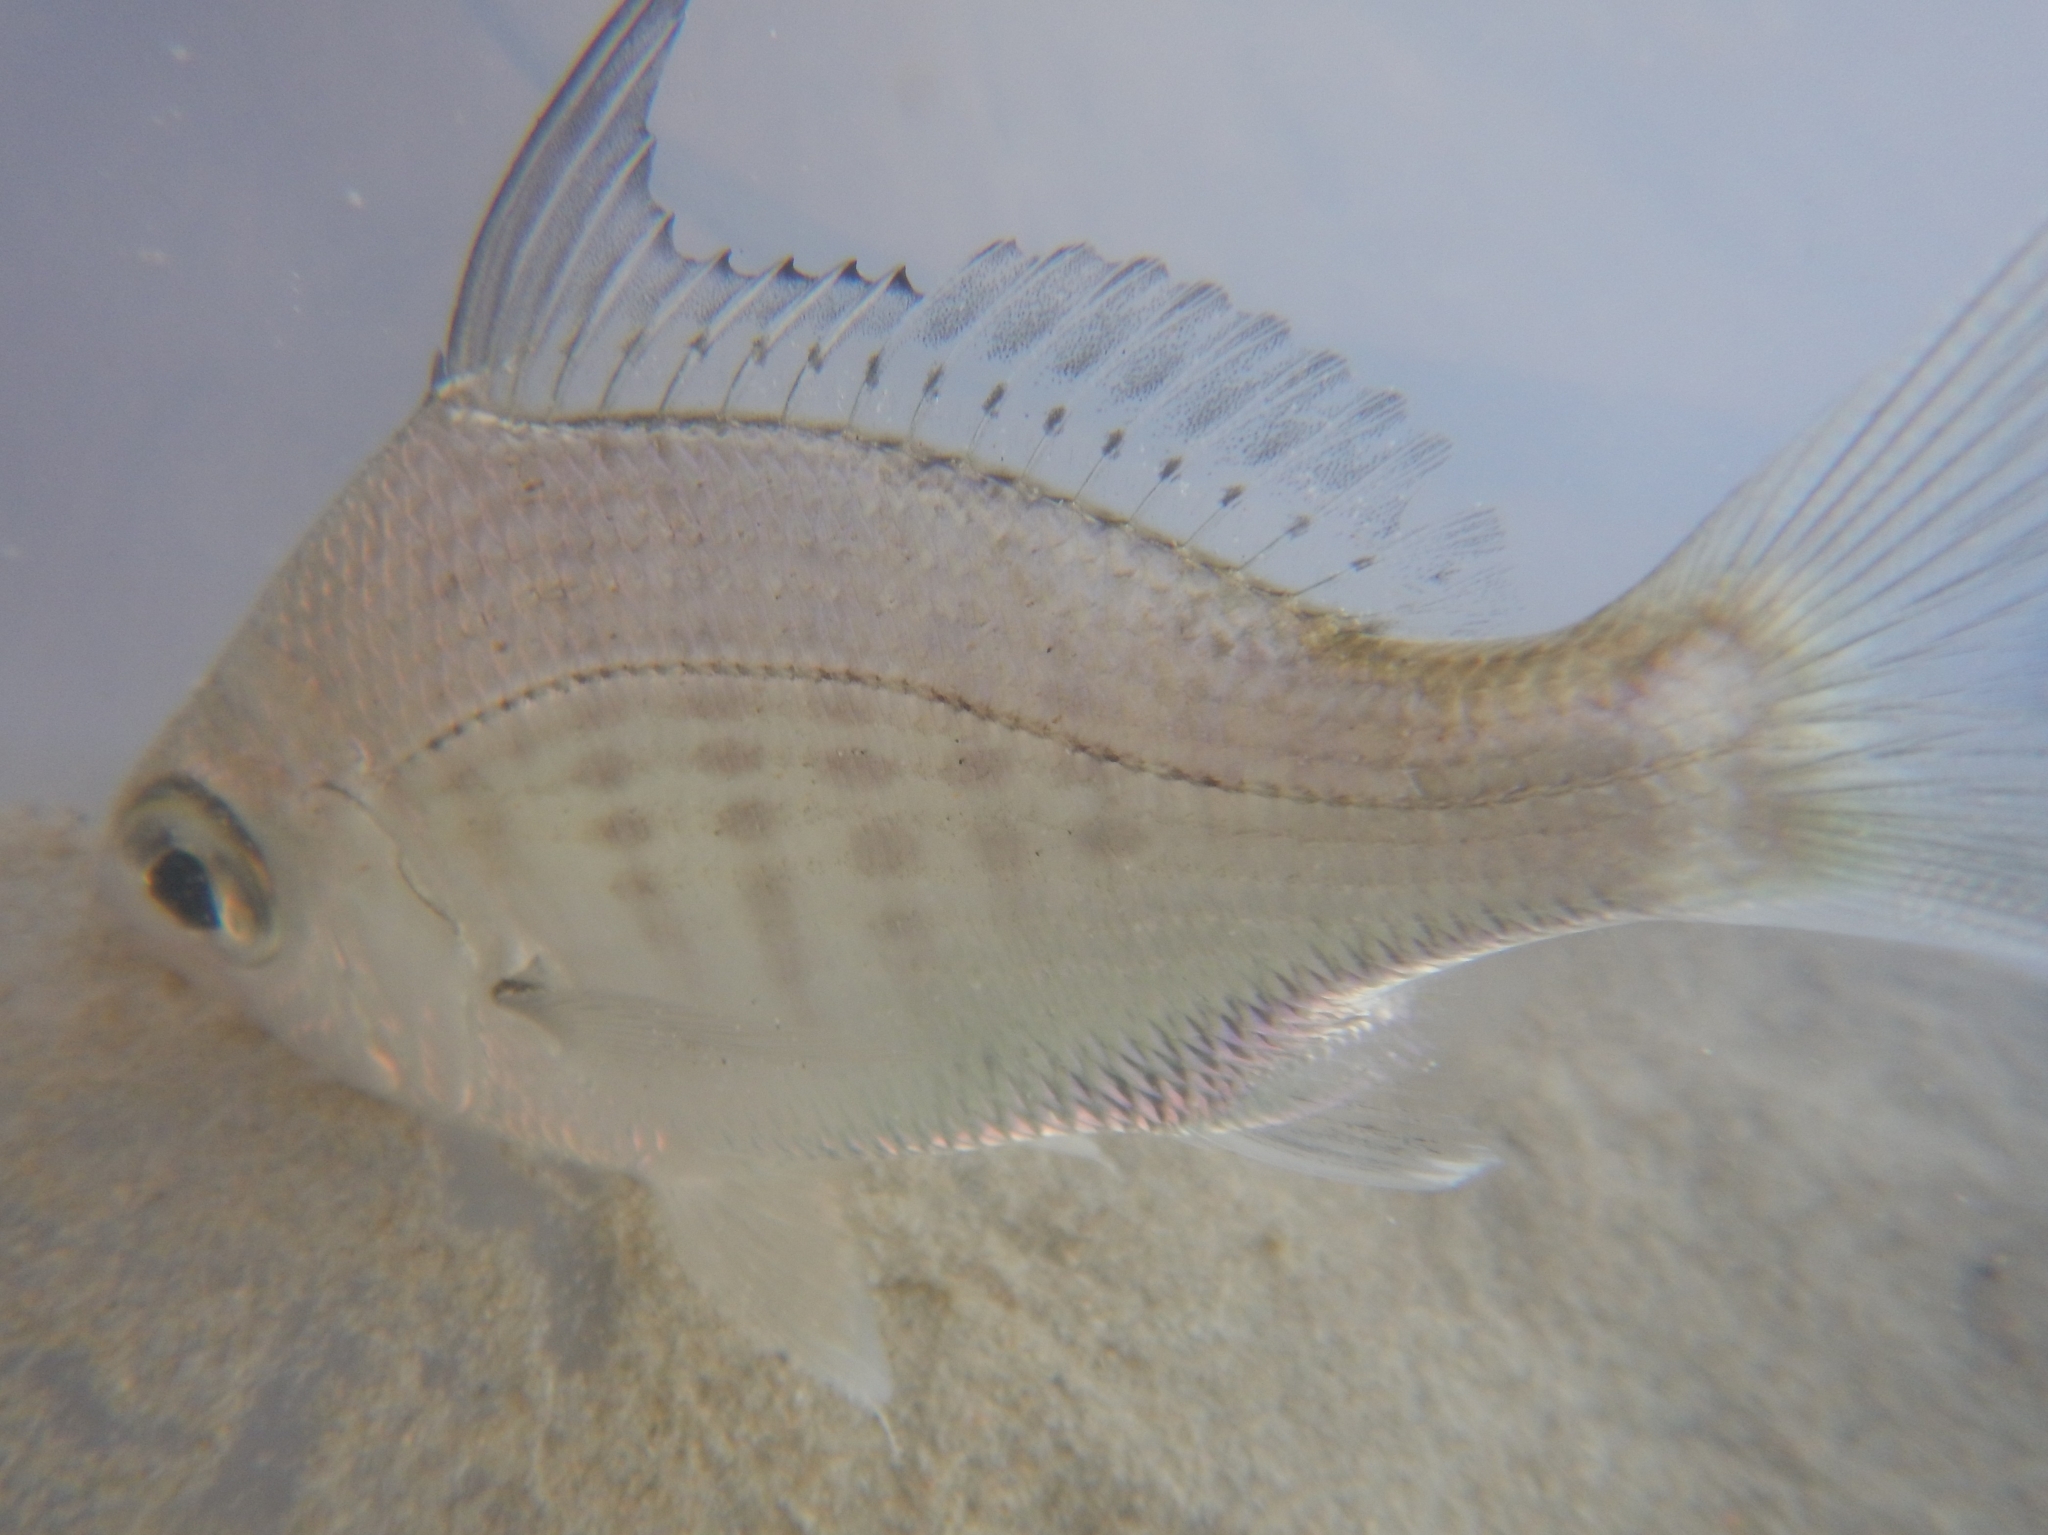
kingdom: Animalia
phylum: Chordata
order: Perciformes
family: Gerreidae
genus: Gerres
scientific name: Gerres filamentosus
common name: Whipfin silverbiddy
